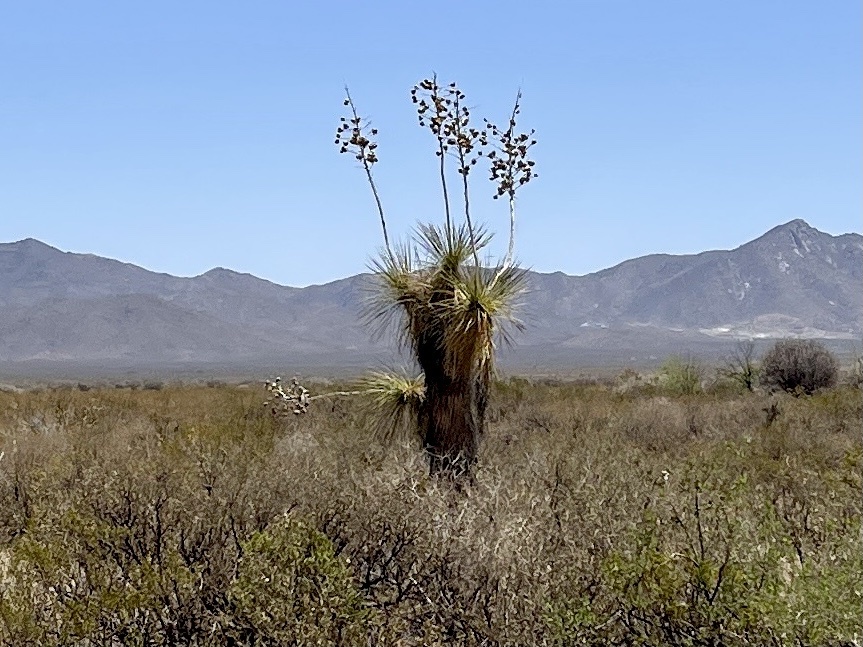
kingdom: Plantae
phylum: Tracheophyta
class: Liliopsida
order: Asparagales
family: Asparagaceae
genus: Yucca
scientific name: Yucca elata
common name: Palmella
